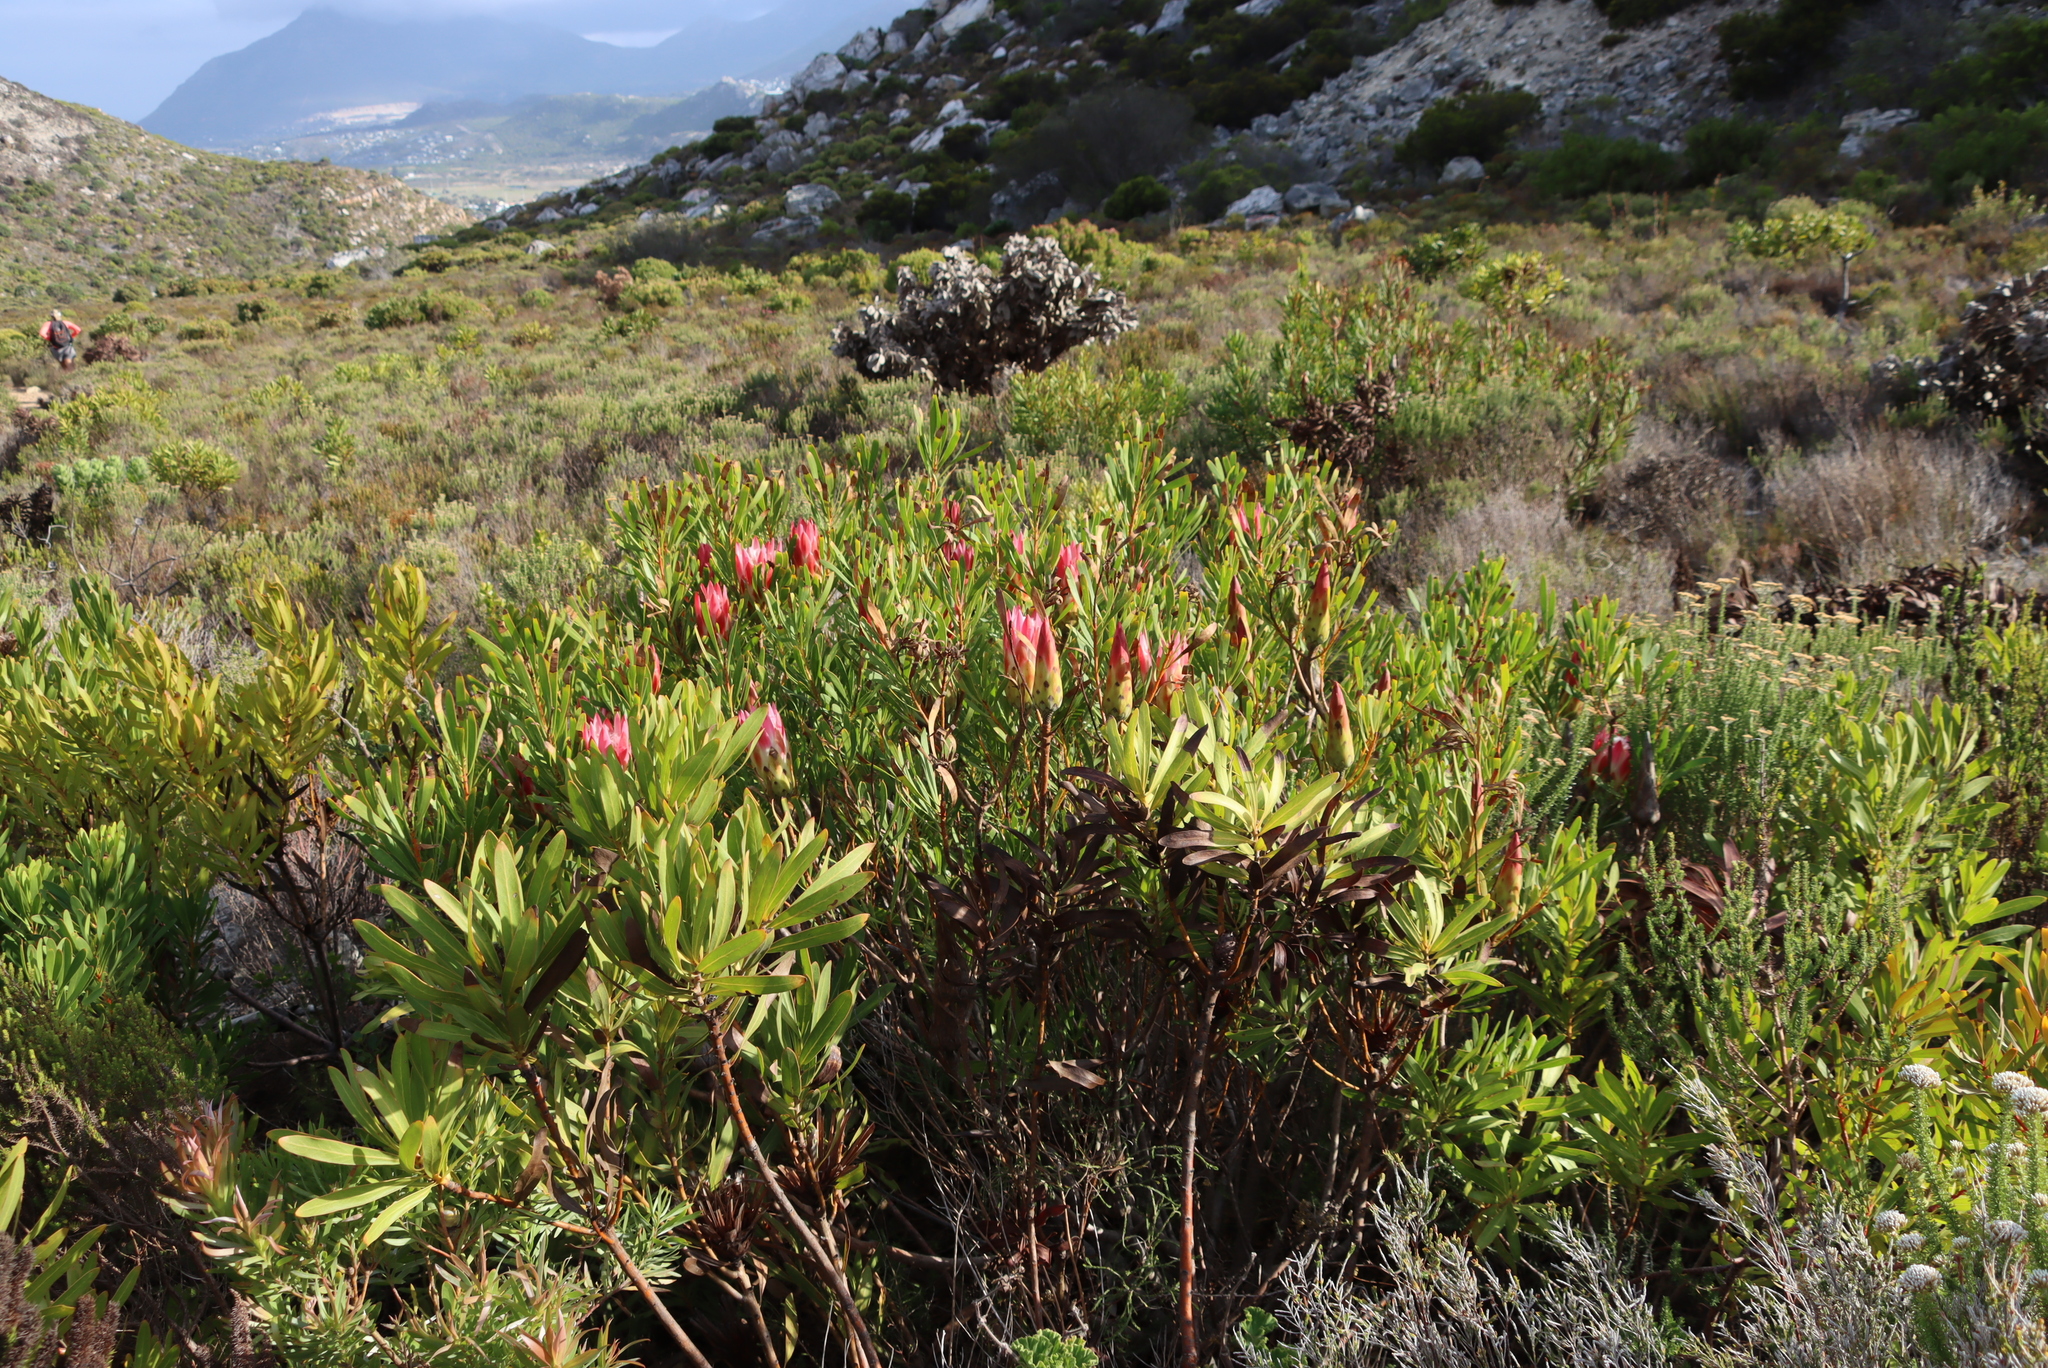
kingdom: Plantae
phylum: Tracheophyta
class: Magnoliopsida
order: Proteales
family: Proteaceae
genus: Protea
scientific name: Protea repens
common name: Sugarbush
